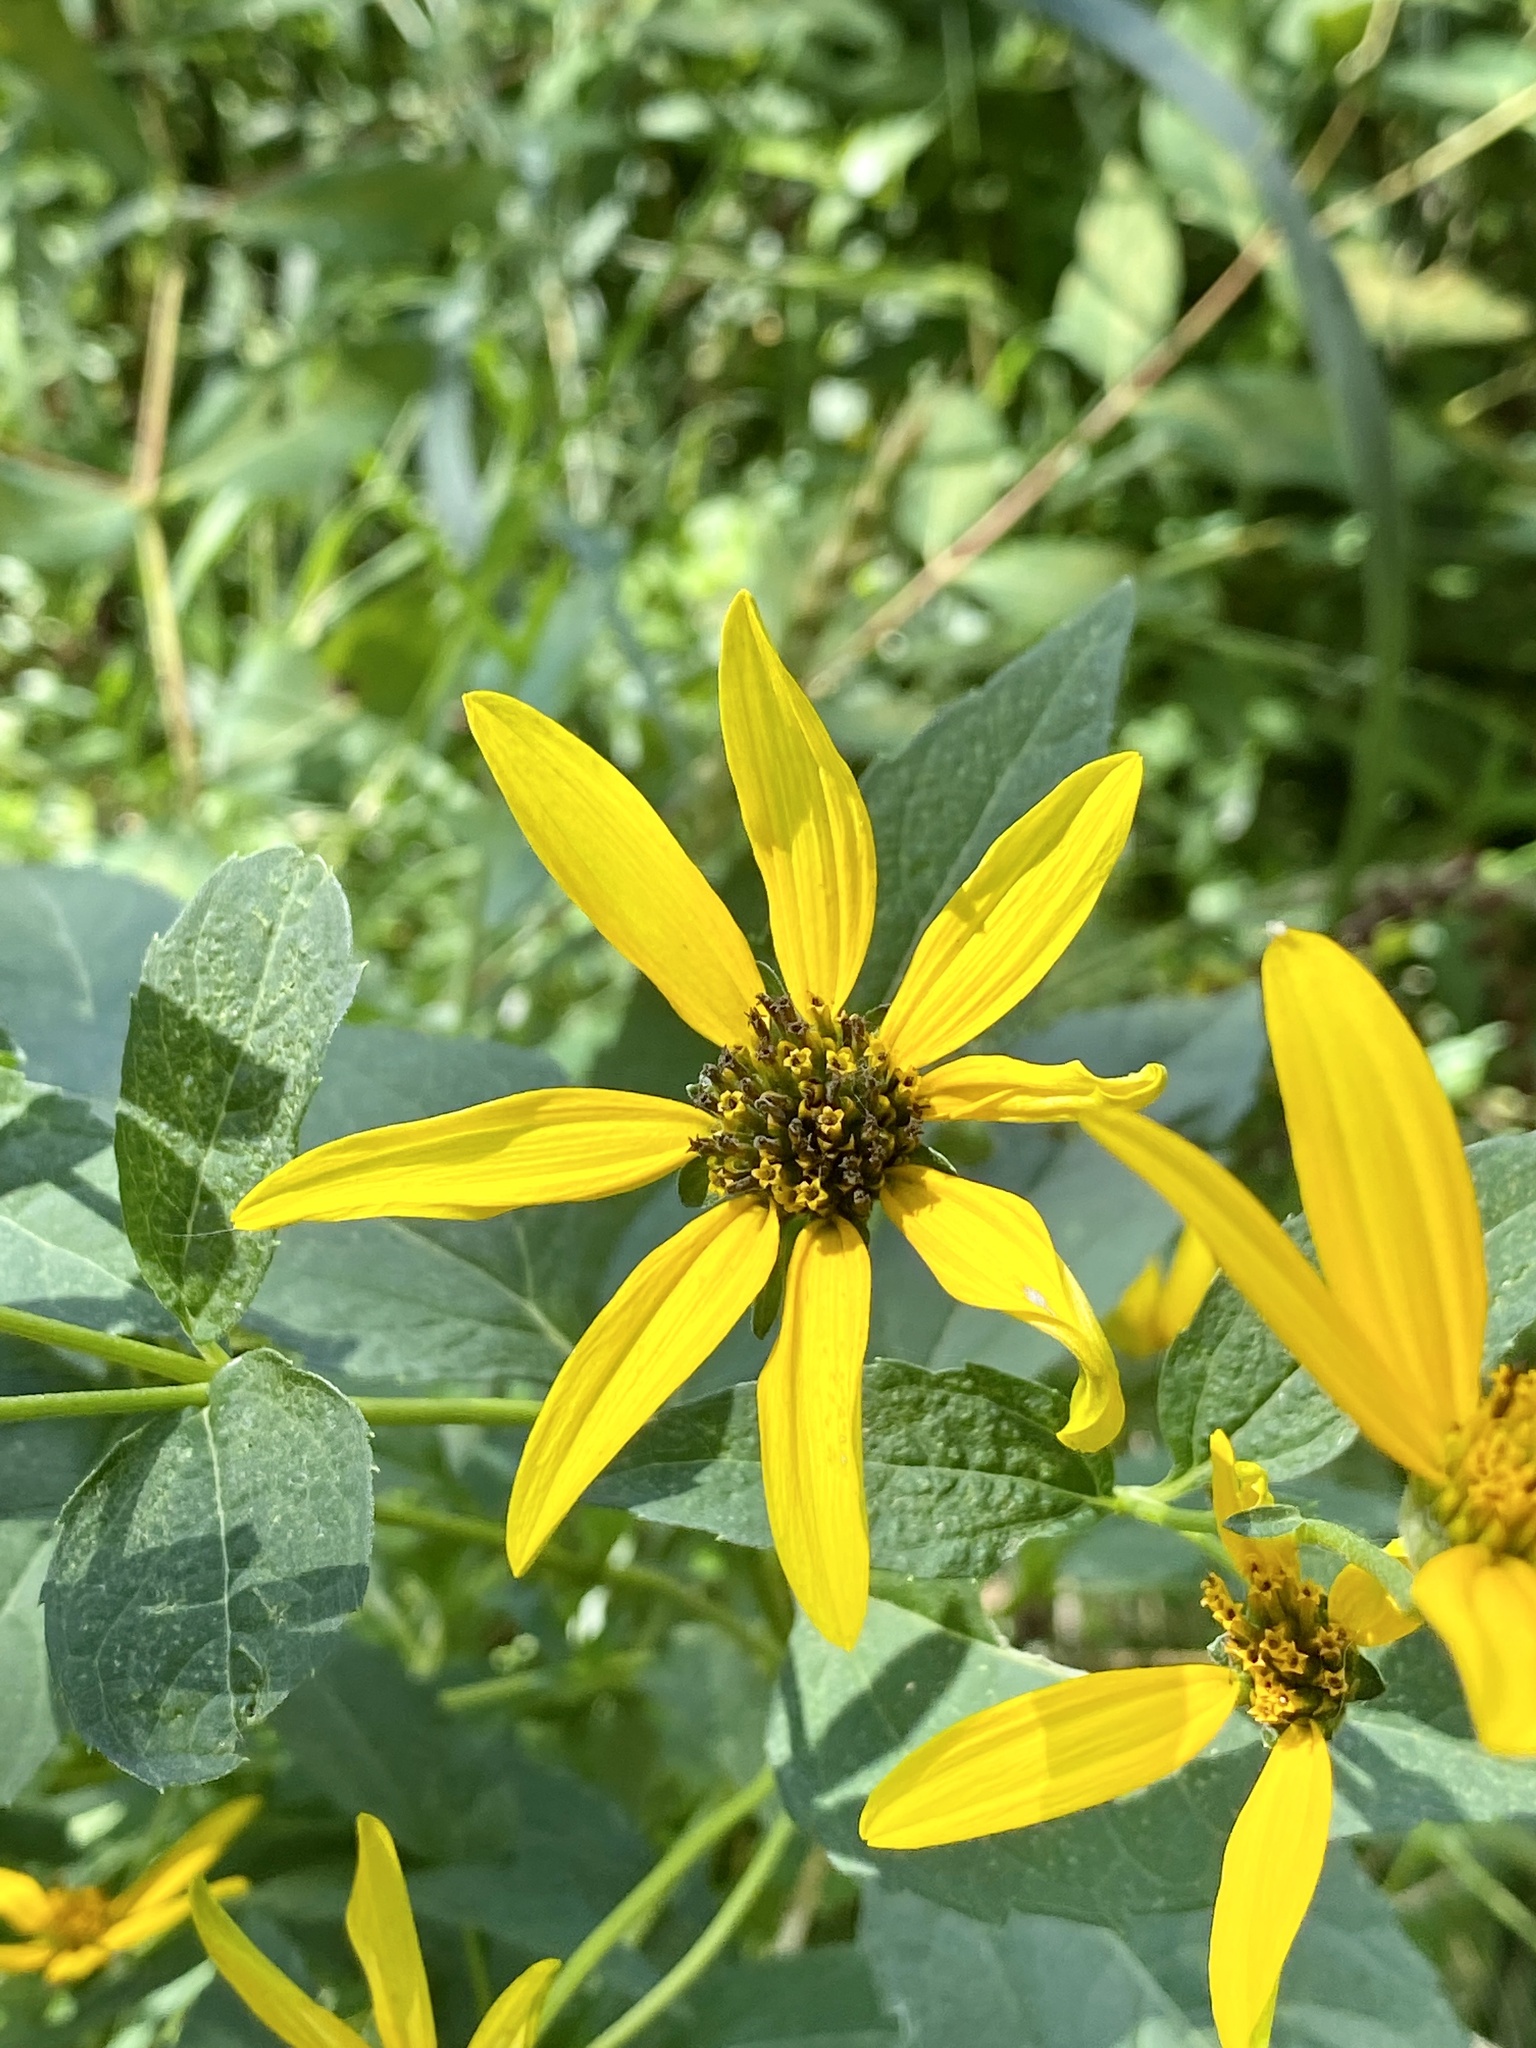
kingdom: Plantae
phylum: Tracheophyta
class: Magnoliopsida
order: Asterales
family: Asteraceae
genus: Helianthus
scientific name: Helianthus decapetalus
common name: Thin-leaved sunflower
